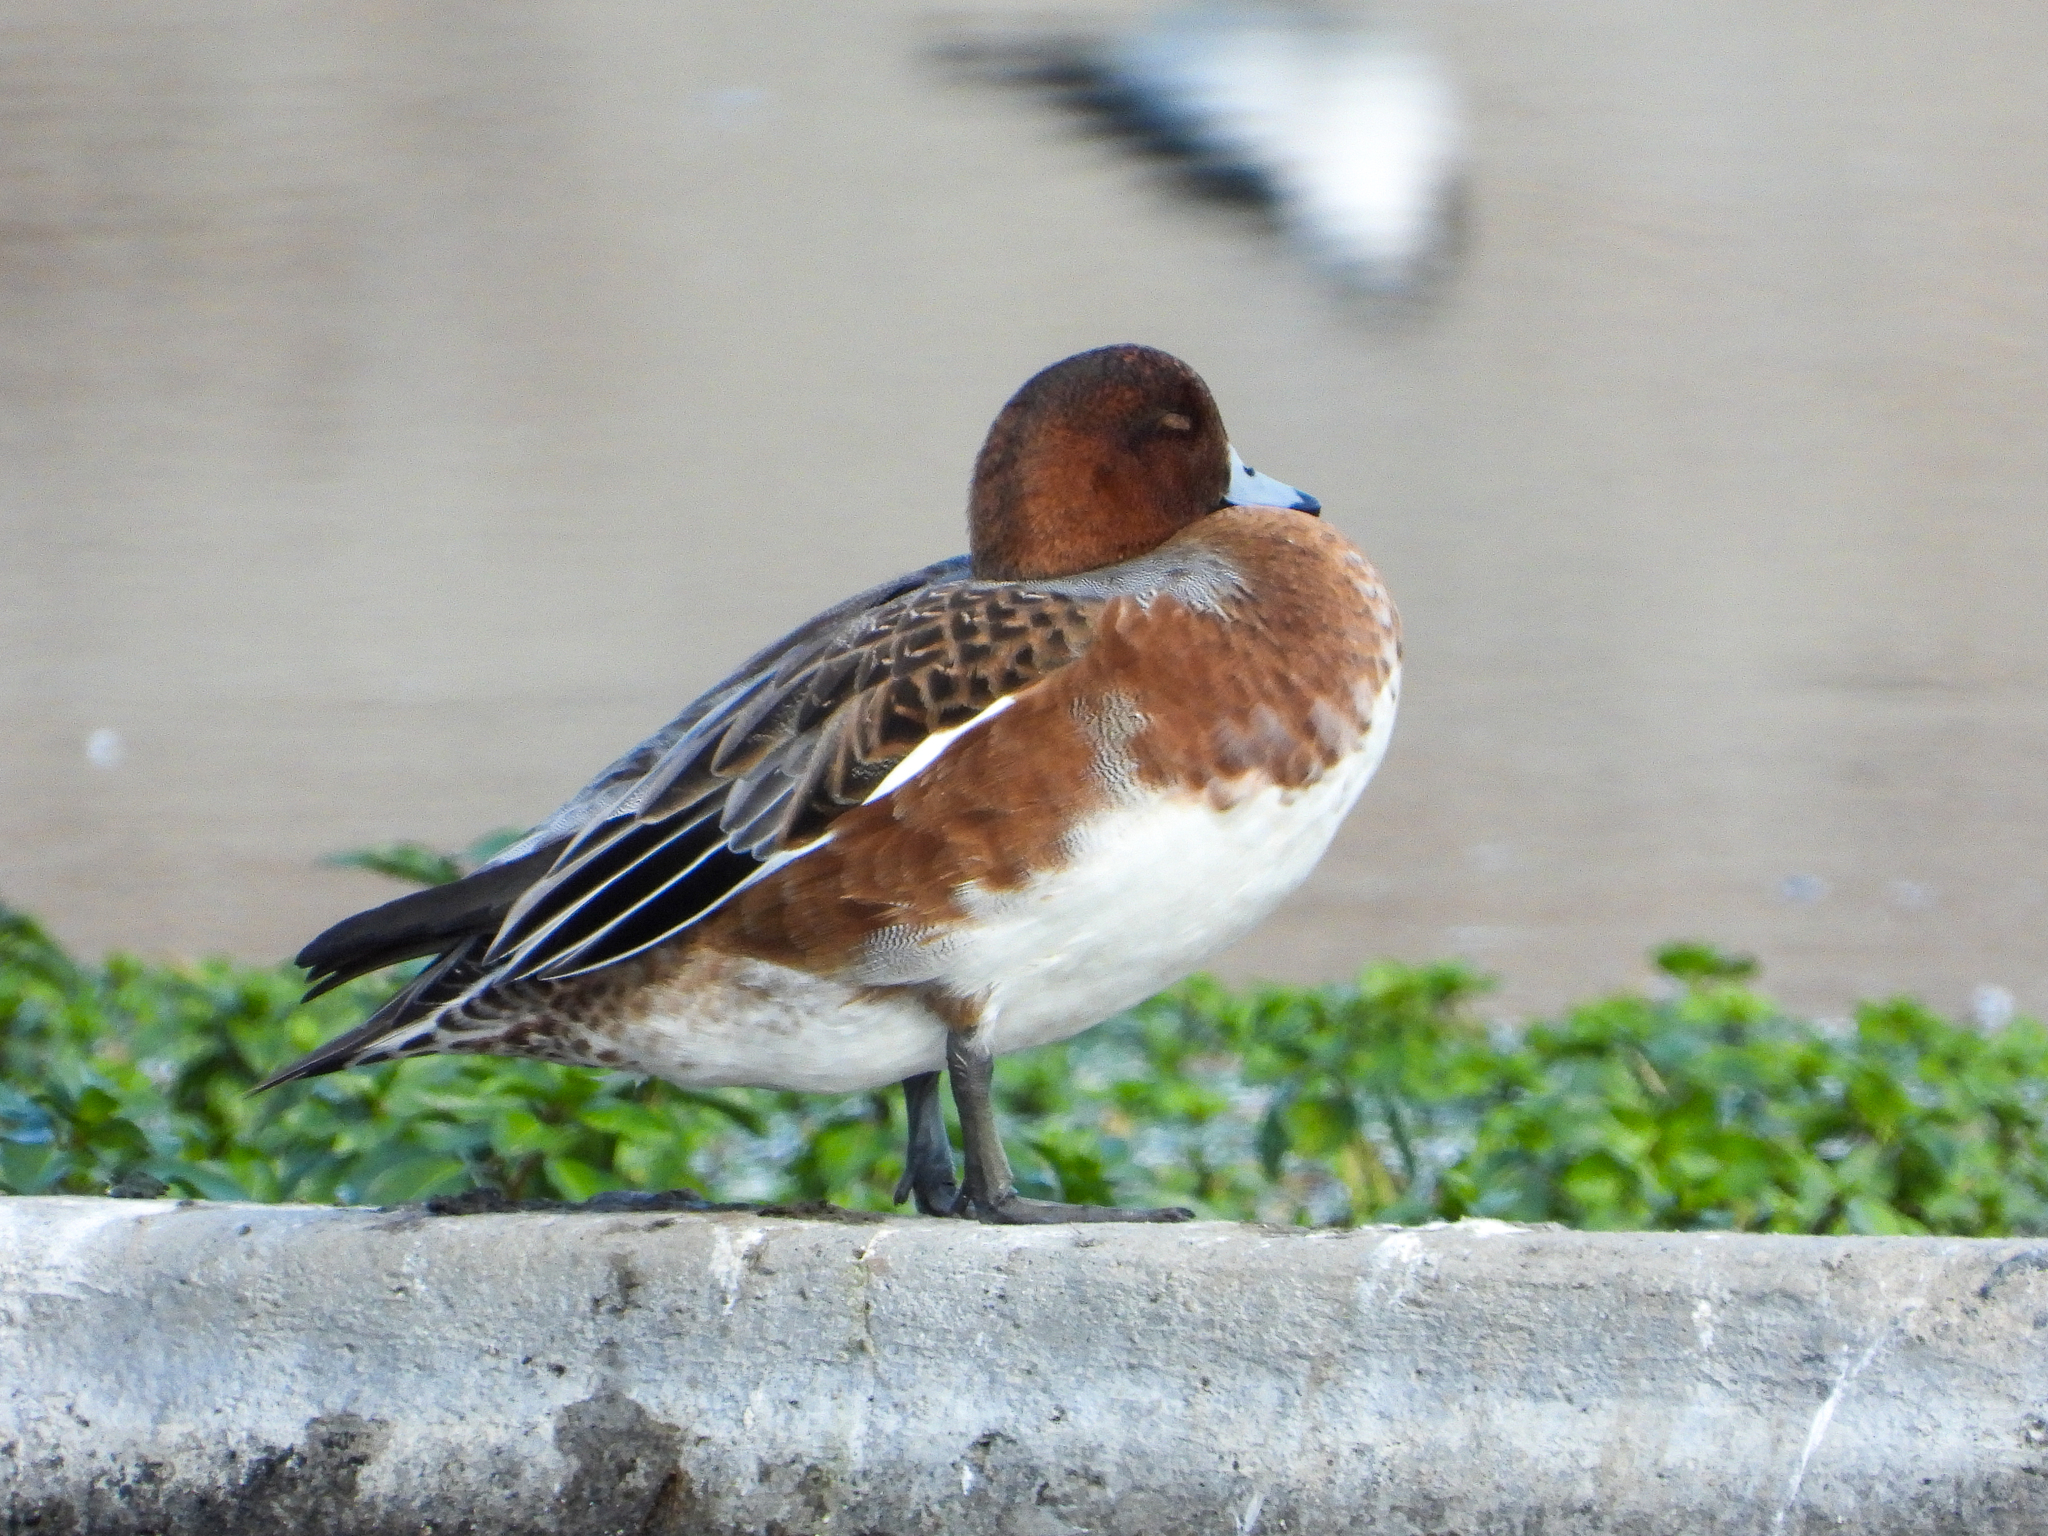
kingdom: Animalia
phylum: Chordata
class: Aves
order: Anseriformes
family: Anatidae
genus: Mareca
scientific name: Mareca penelope
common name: Eurasian wigeon
